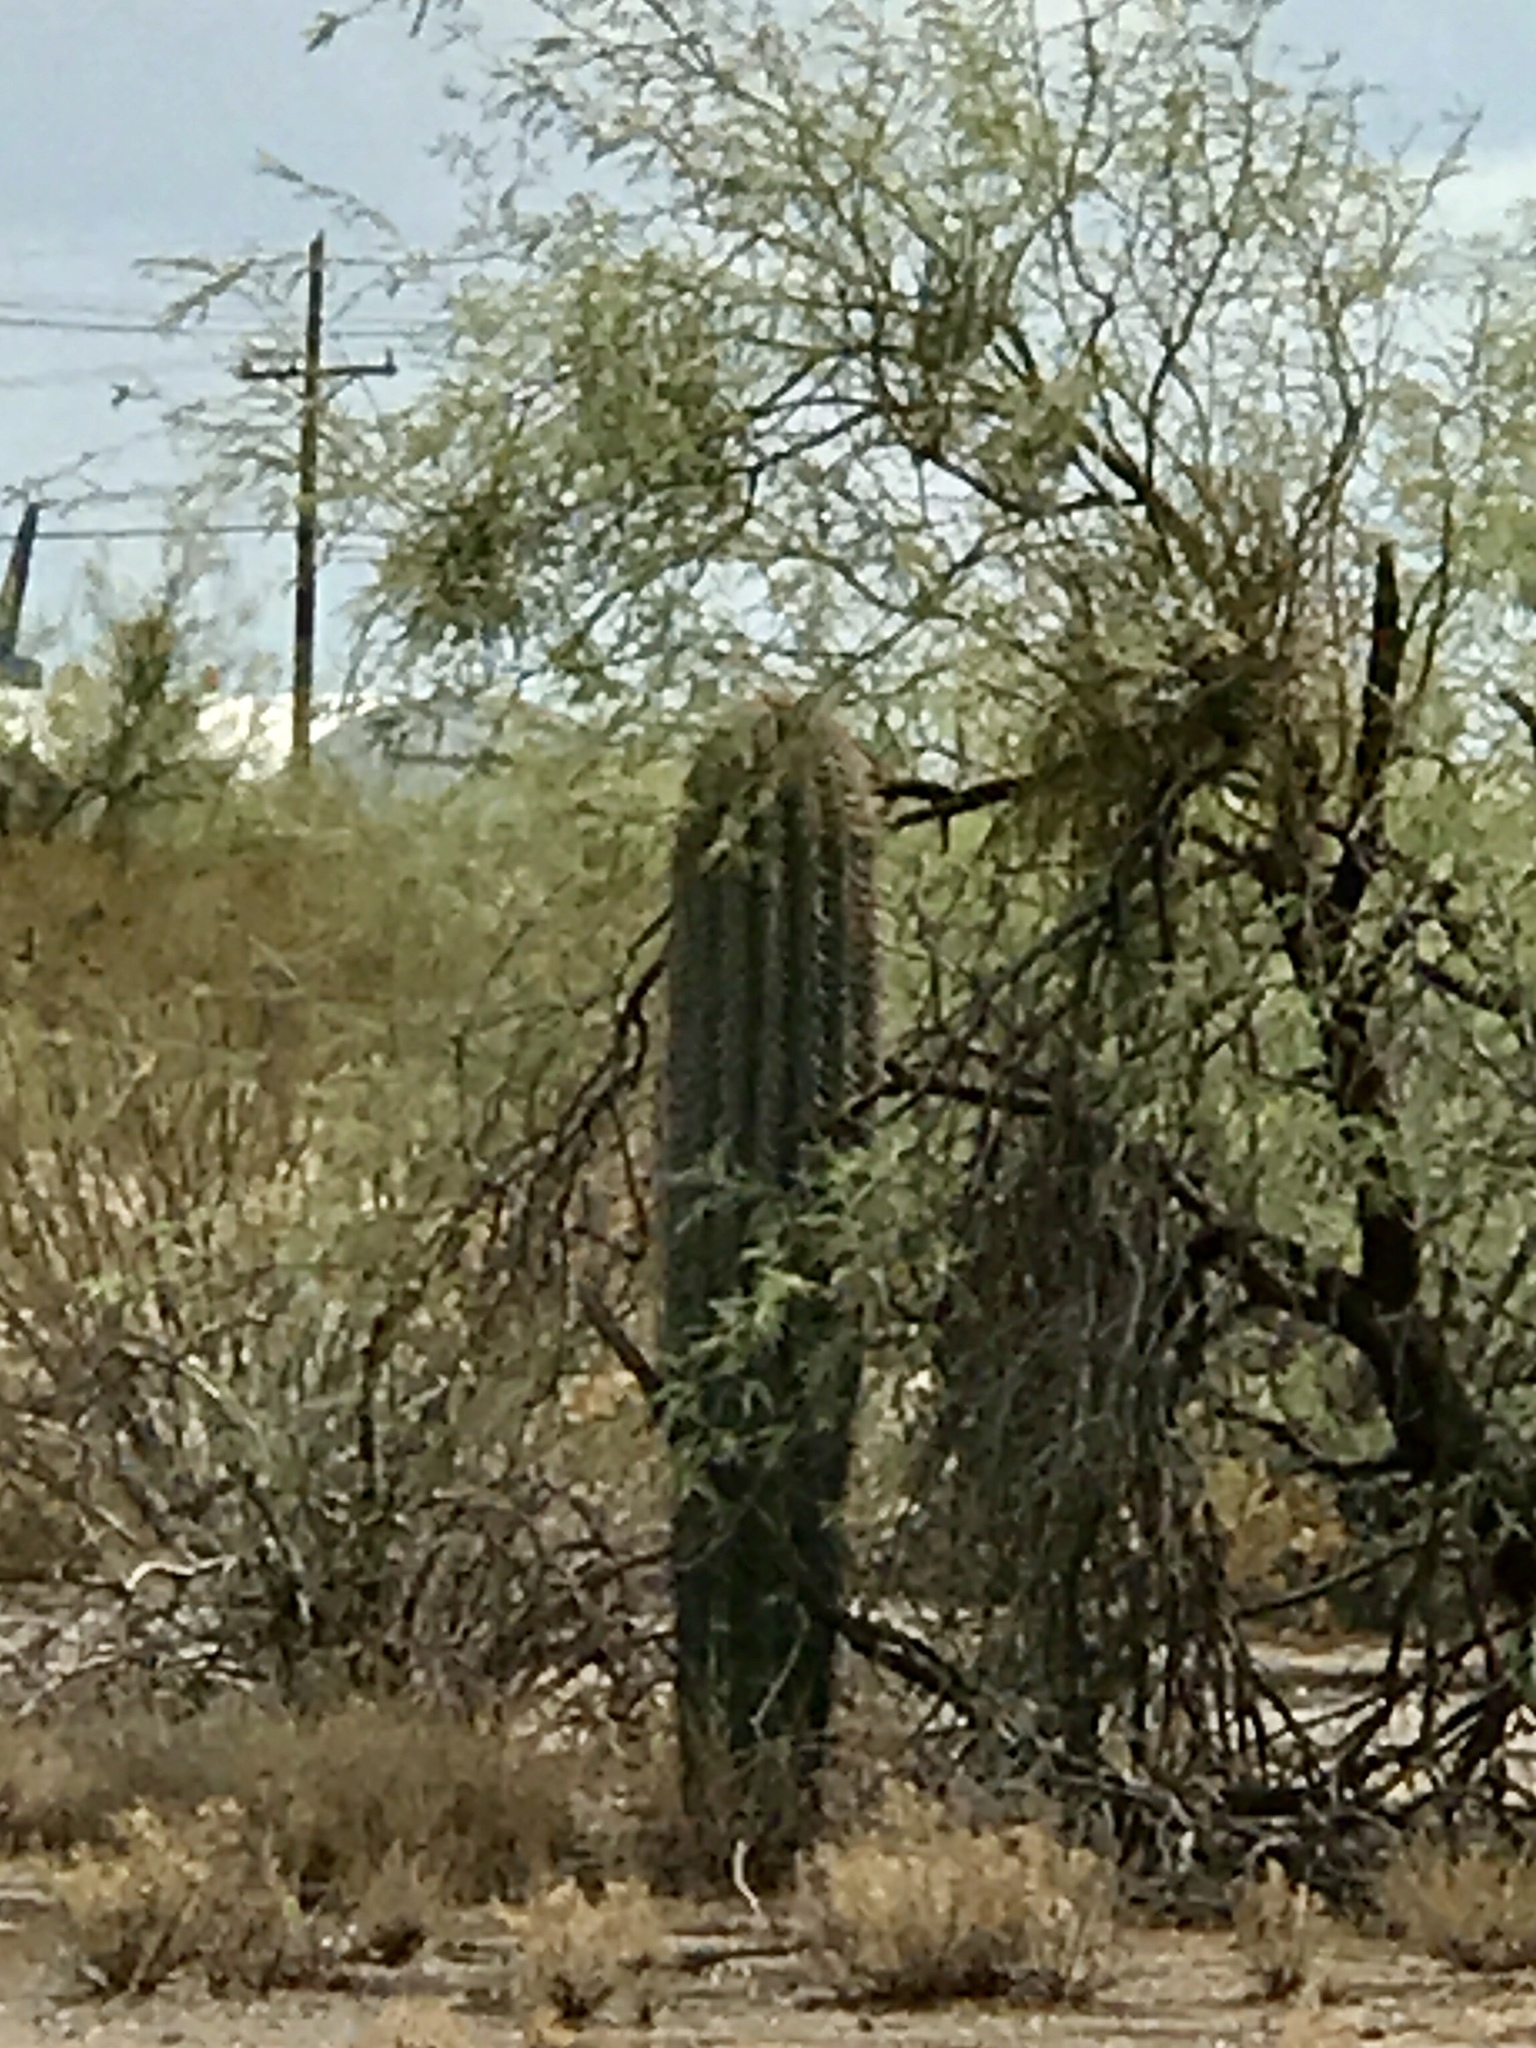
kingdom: Plantae
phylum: Tracheophyta
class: Magnoliopsida
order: Caryophyllales
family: Cactaceae
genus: Carnegiea
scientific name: Carnegiea gigantea
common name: Saguaro
